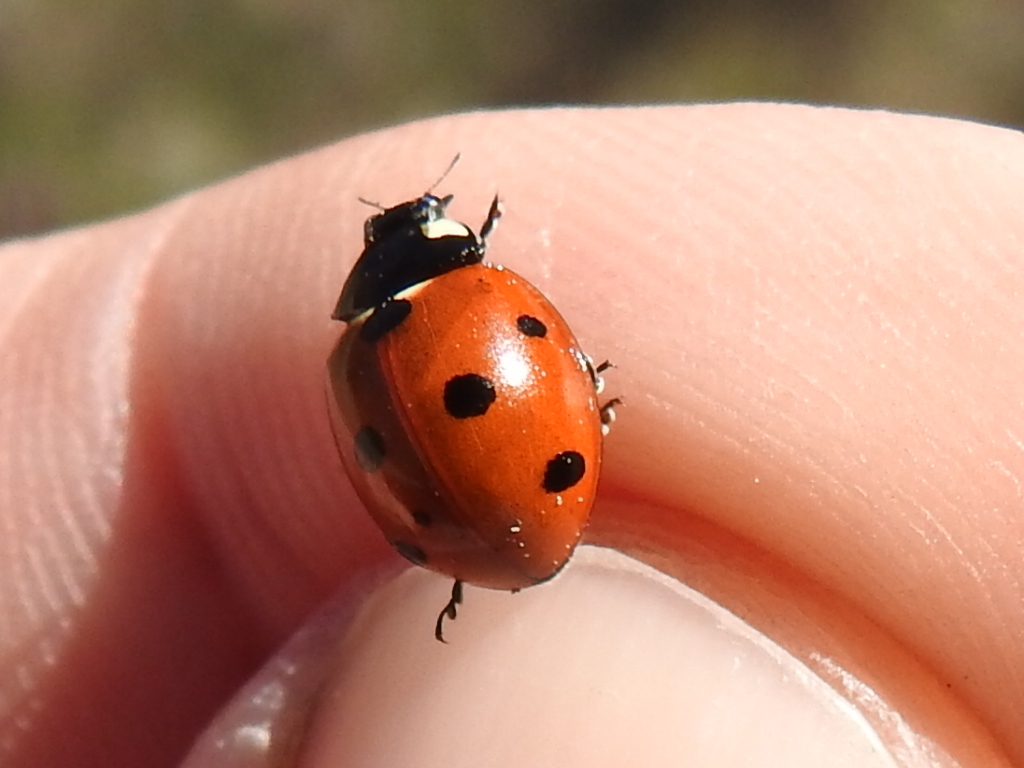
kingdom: Animalia
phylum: Arthropoda
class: Insecta
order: Coleoptera
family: Coccinellidae
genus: Coccinella
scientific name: Coccinella septempunctata
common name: Sevenspotted lady beetle
